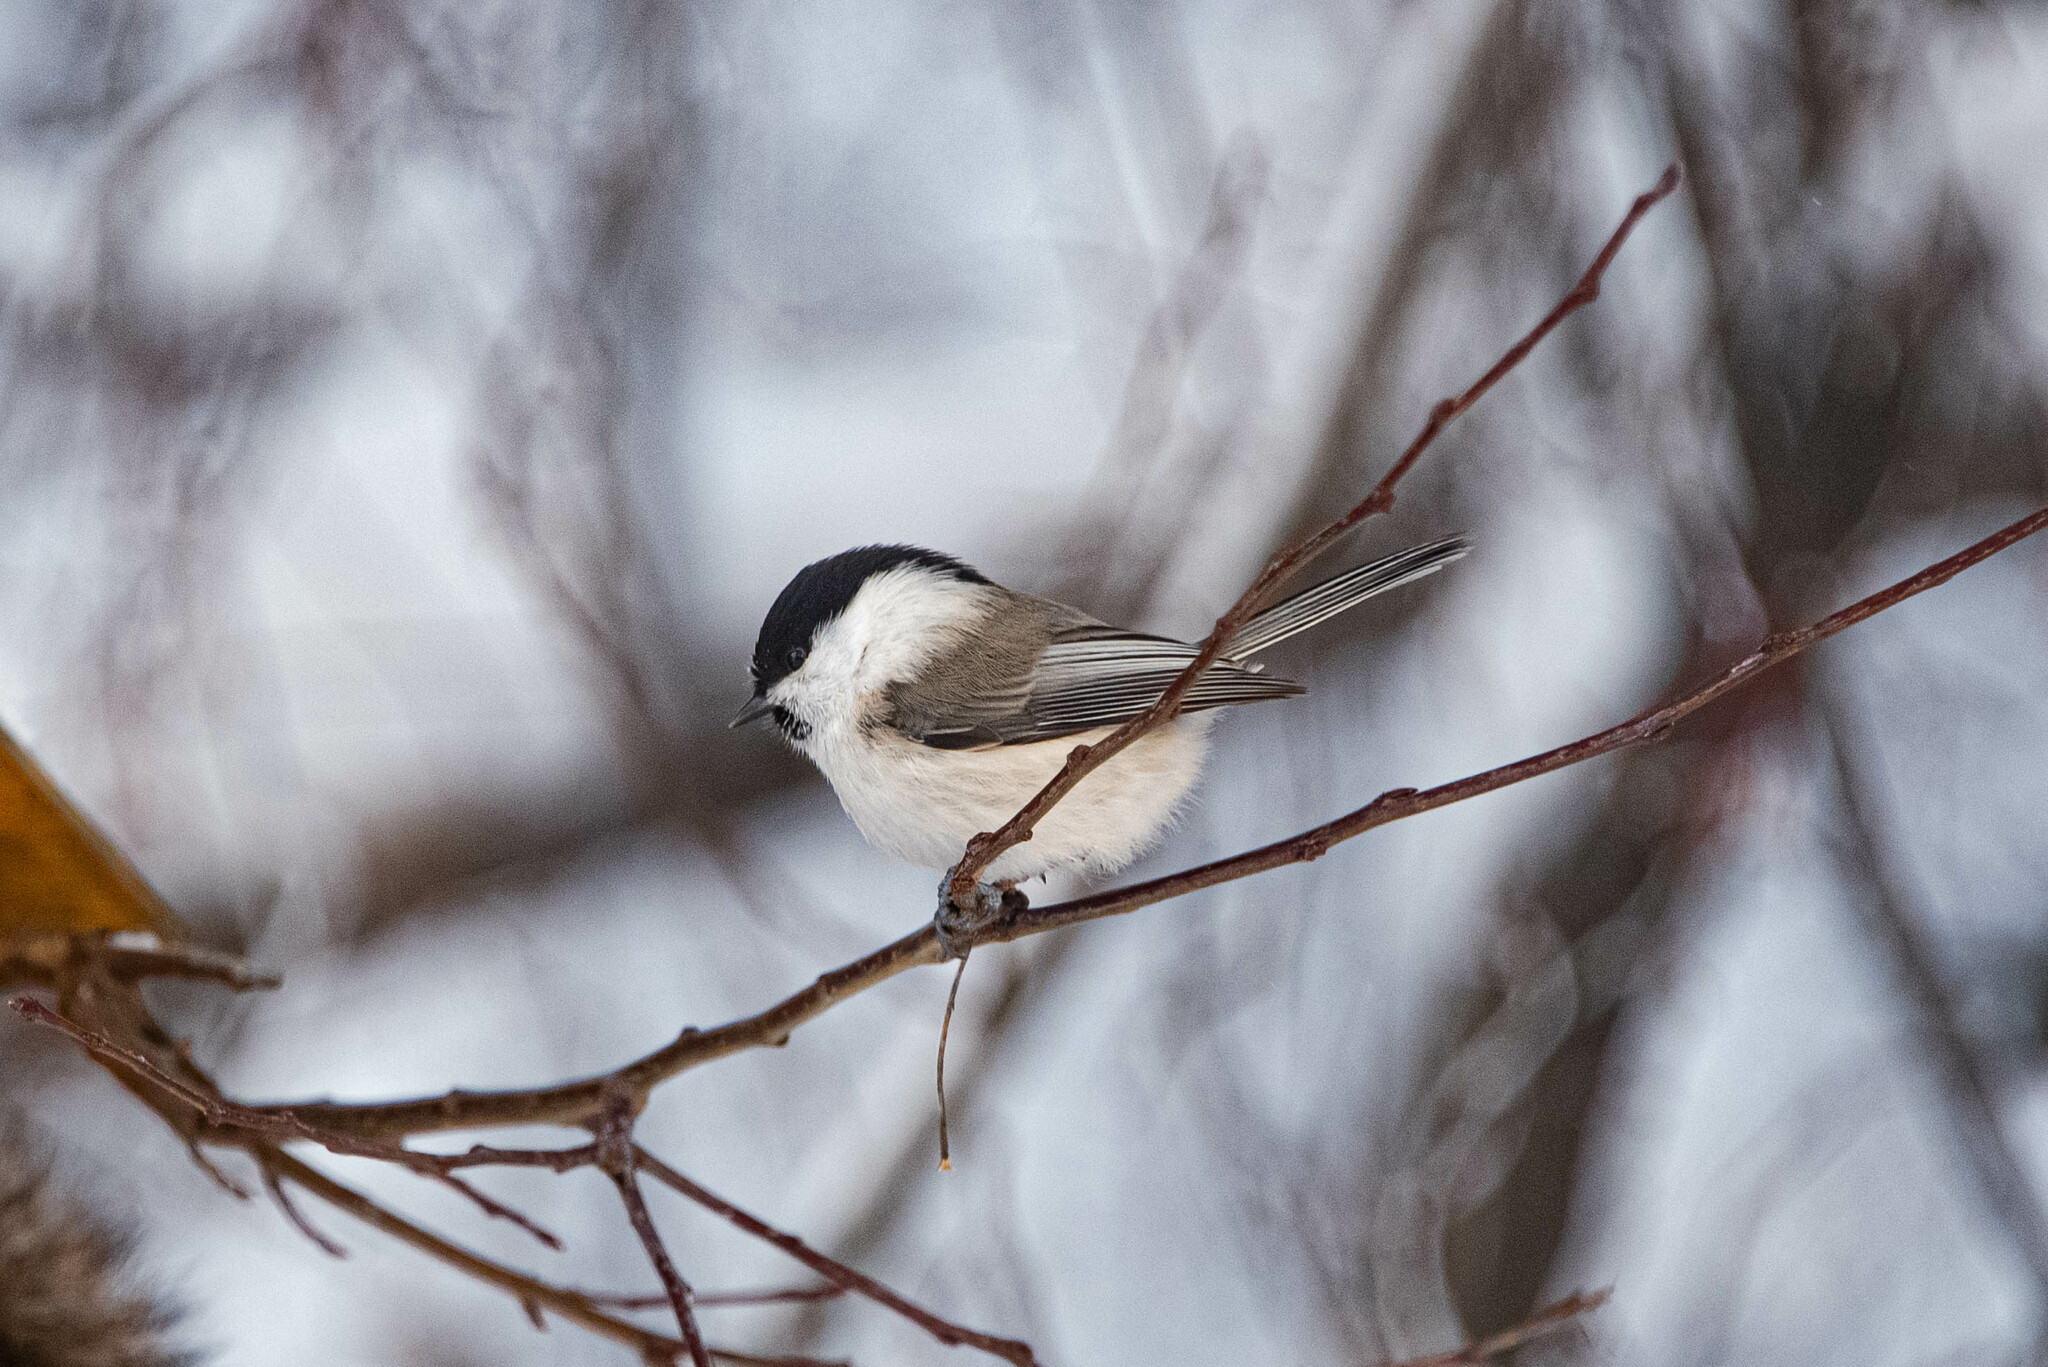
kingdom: Animalia
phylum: Chordata
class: Aves
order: Passeriformes
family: Paridae
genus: Poecile
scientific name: Poecile montanus
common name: Willow tit
